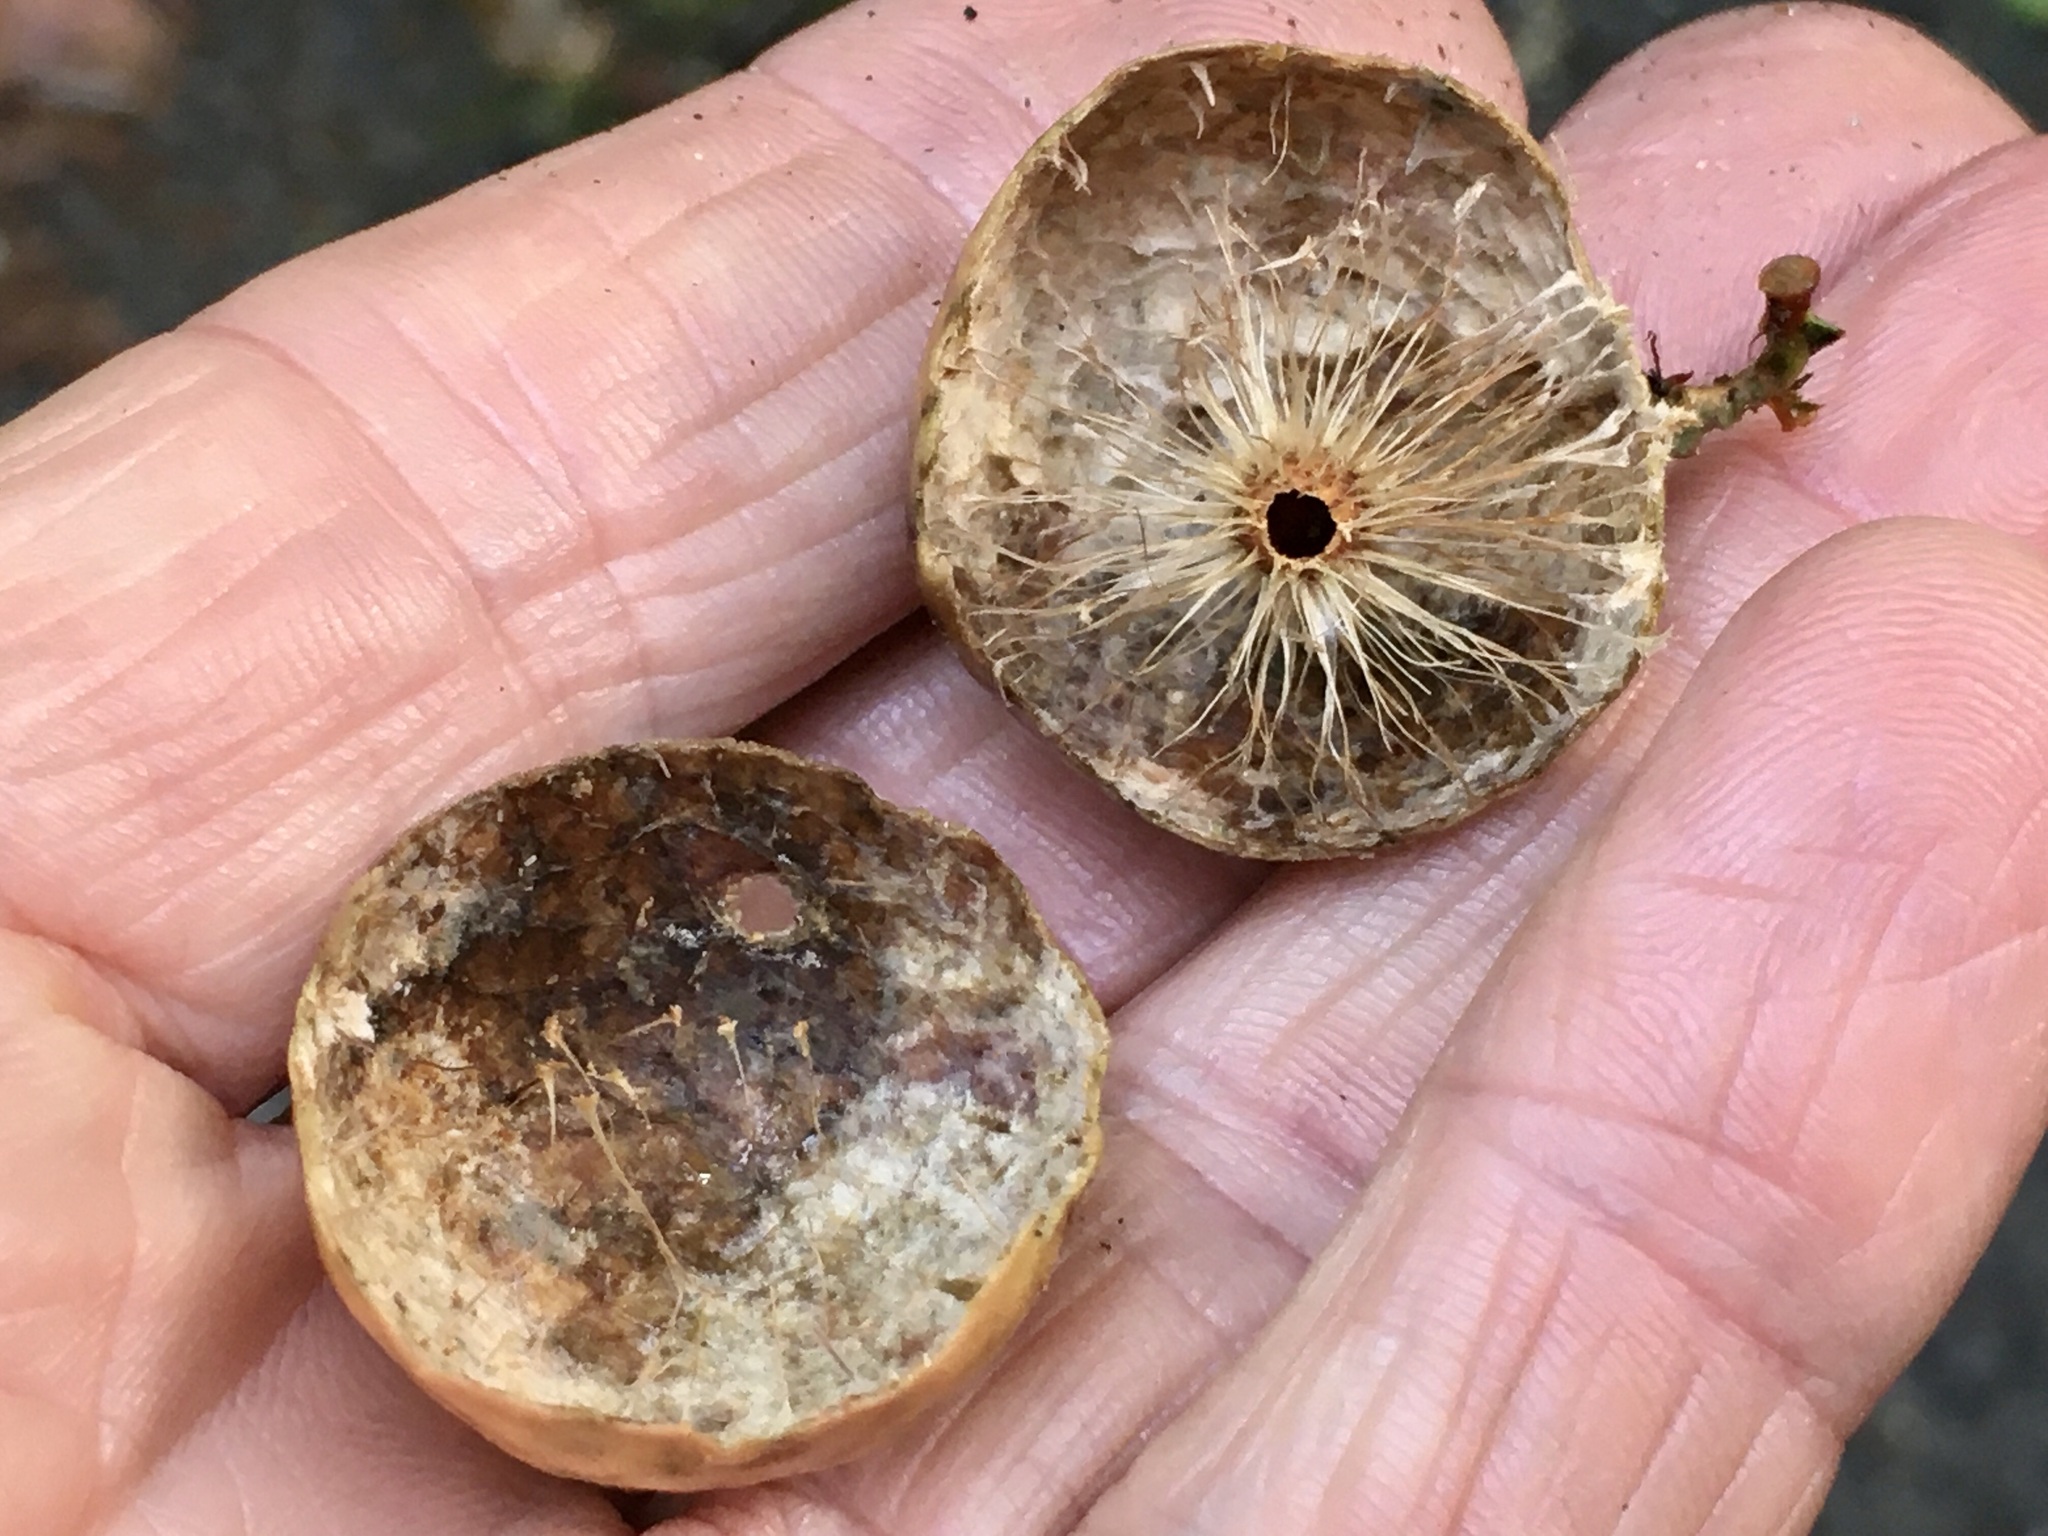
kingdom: Animalia
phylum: Arthropoda
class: Insecta
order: Hymenoptera
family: Cynipidae
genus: Amphibolips
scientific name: Amphibolips
